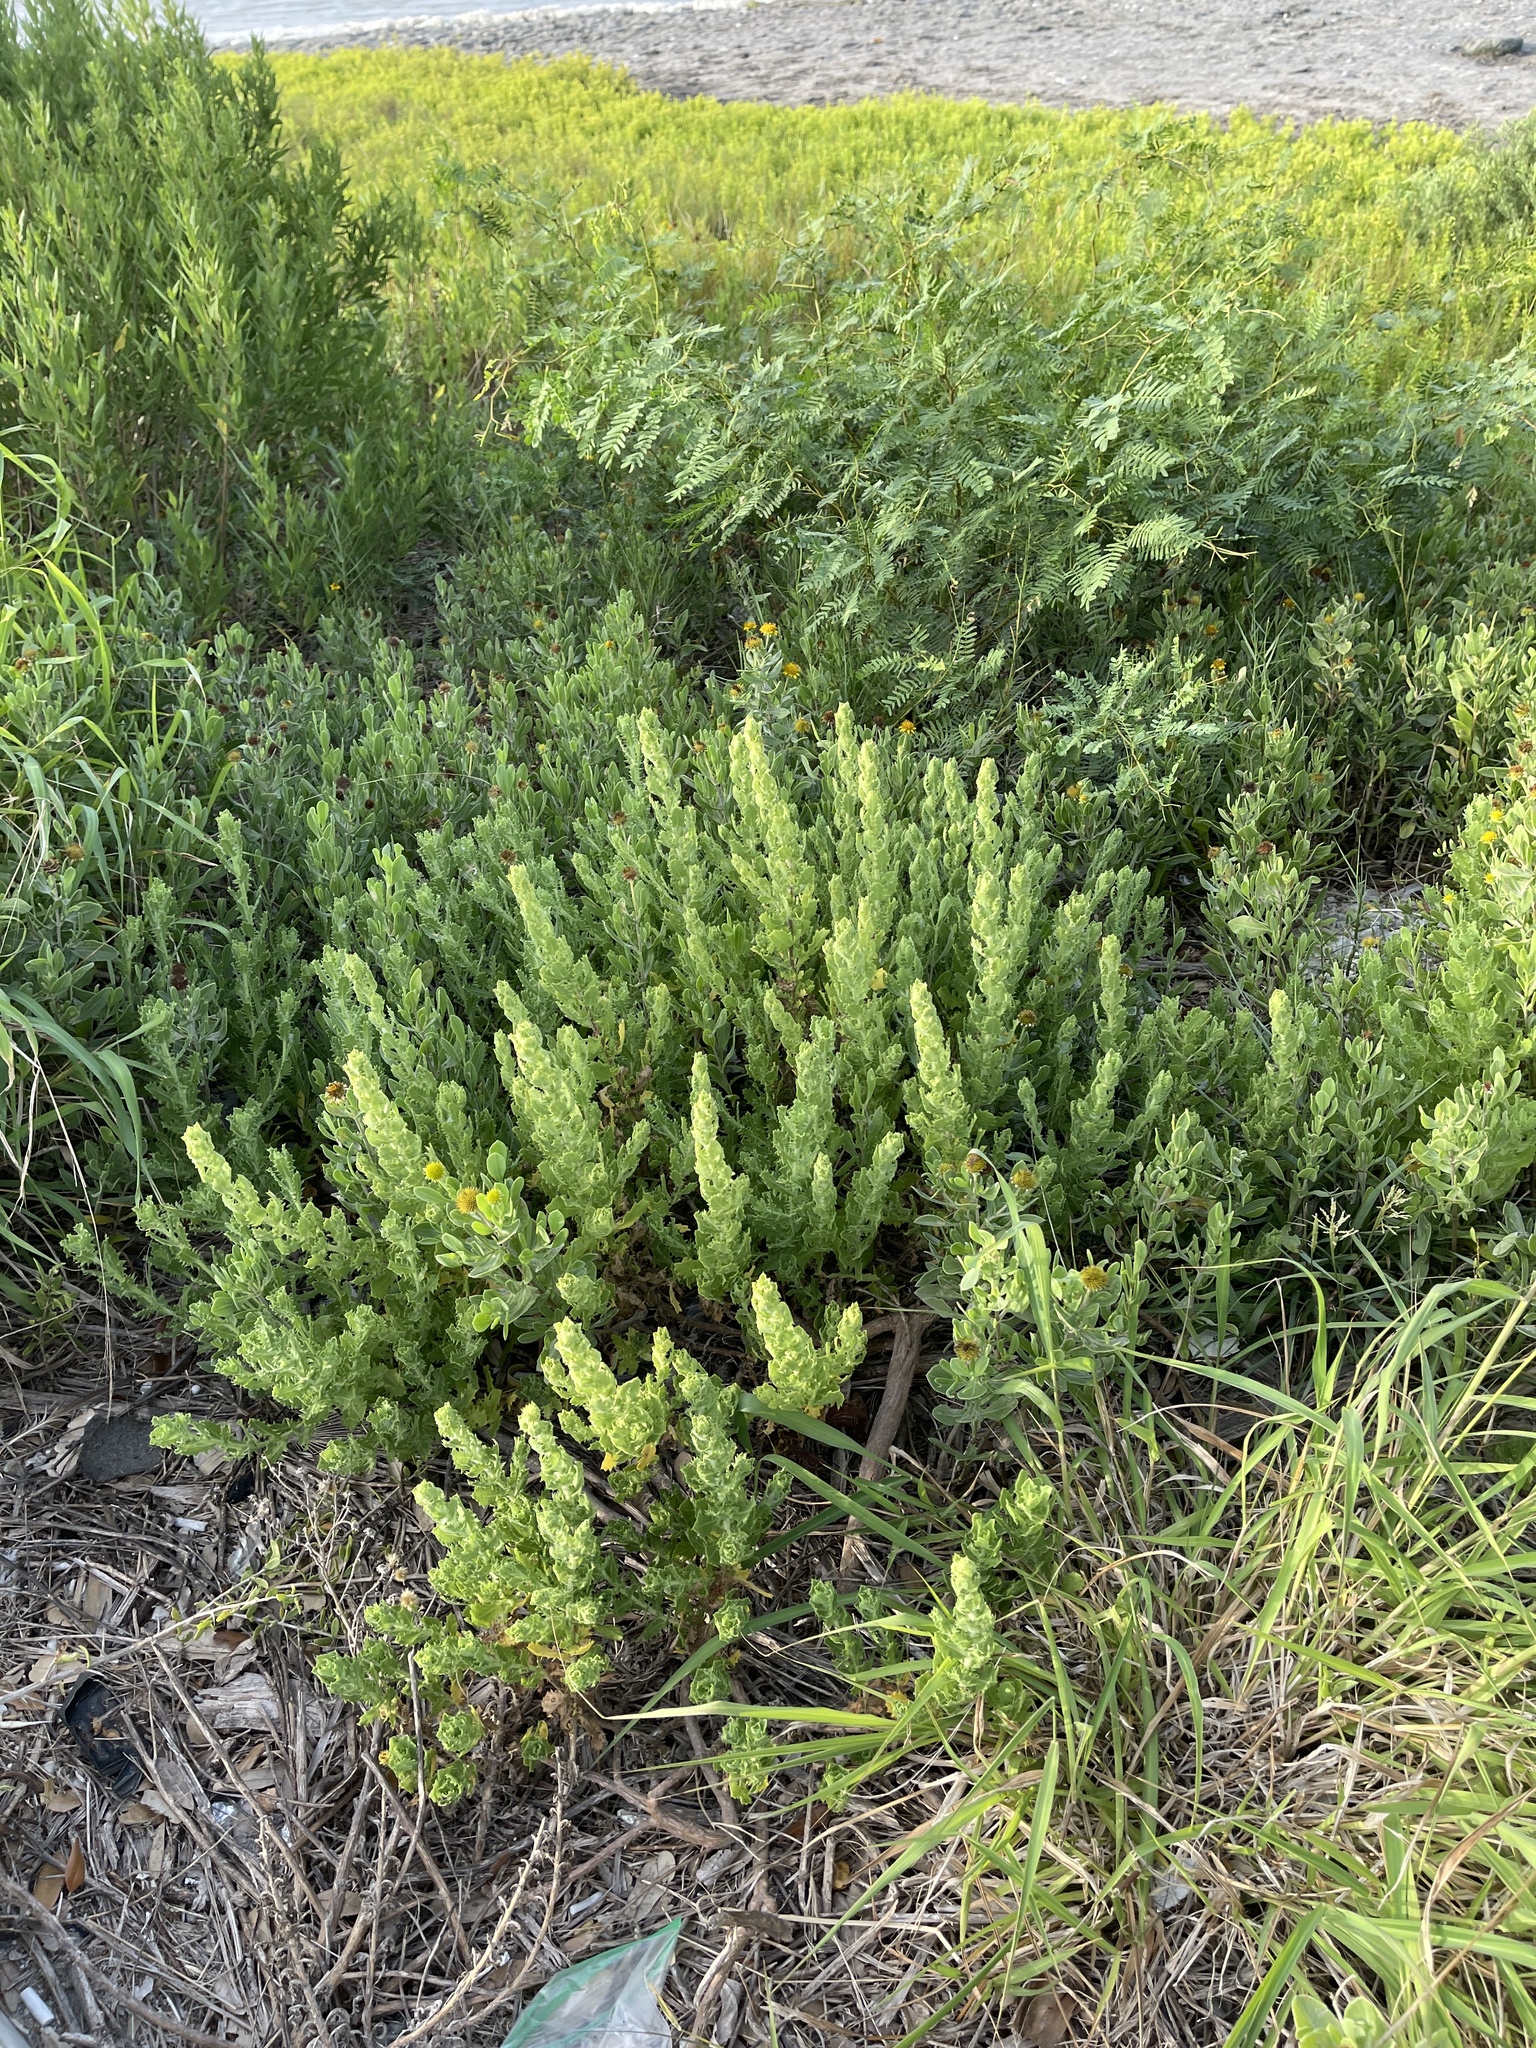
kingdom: Plantae
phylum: Tracheophyta
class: Magnoliopsida
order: Asterales
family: Asteraceae
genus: Rayjacksonia
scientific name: Rayjacksonia phyllocephala
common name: Gulf coast camphor daisy
